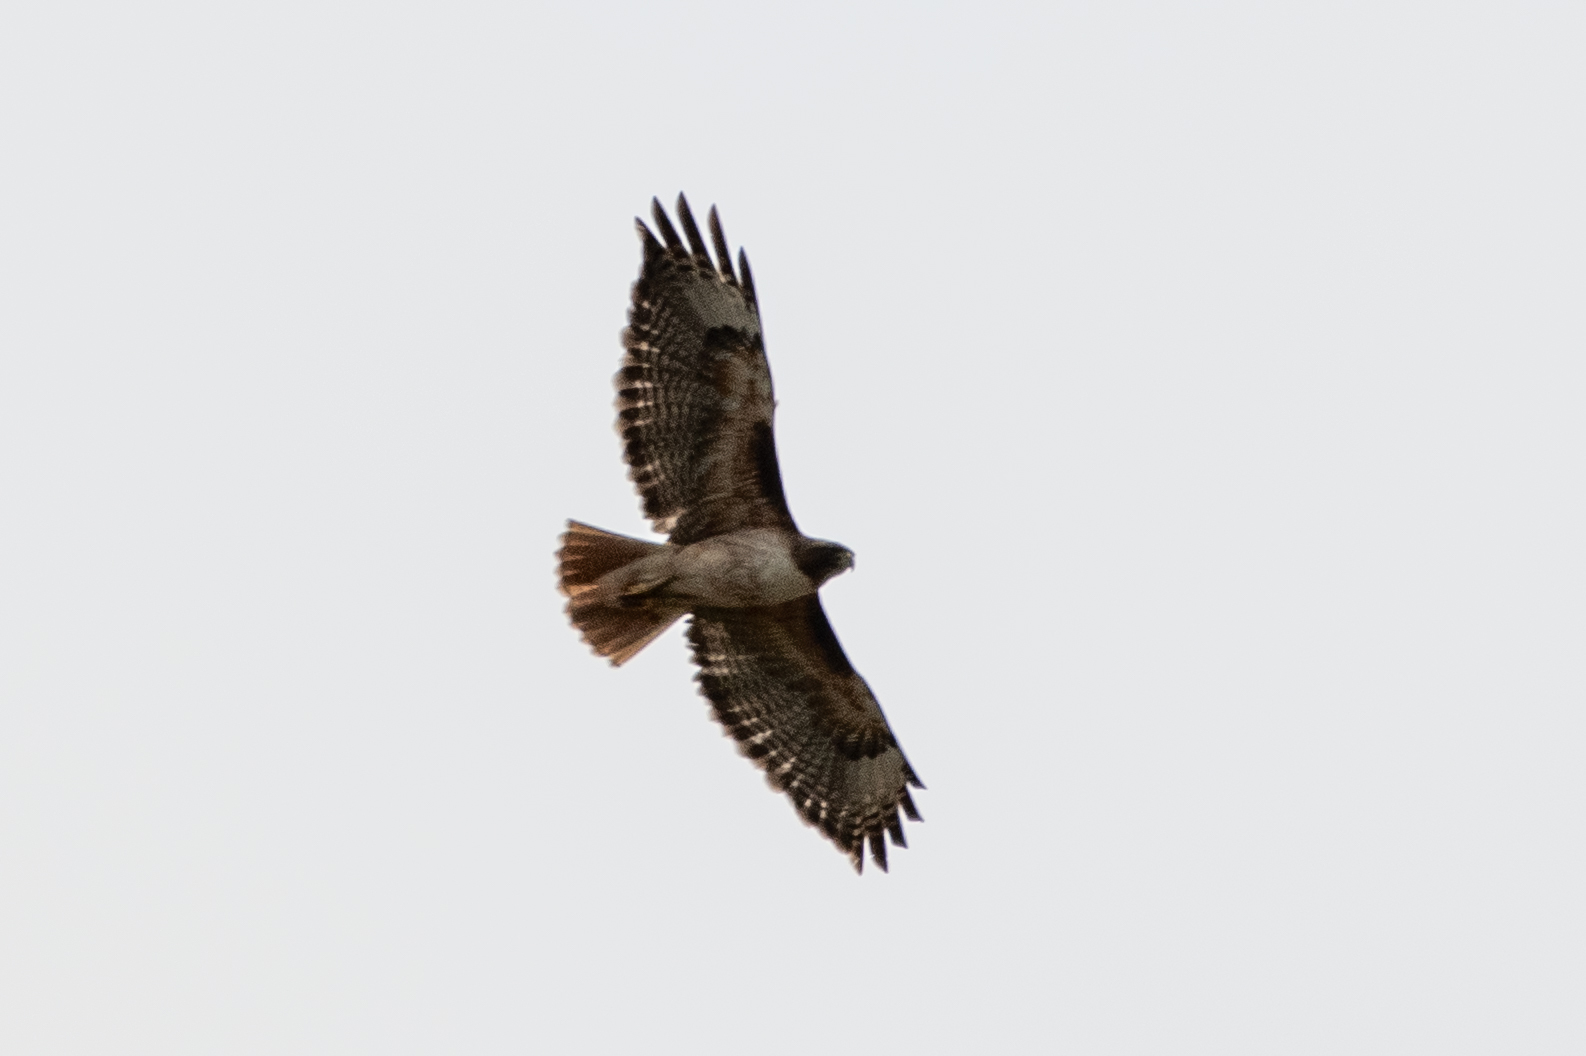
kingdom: Animalia
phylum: Chordata
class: Aves
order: Accipitriformes
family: Accipitridae
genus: Buteo
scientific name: Buteo jamaicensis
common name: Red-tailed hawk
